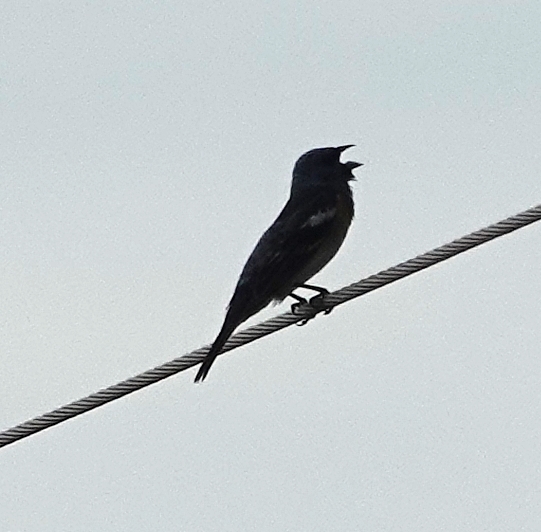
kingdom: Animalia
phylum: Chordata
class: Aves
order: Passeriformes
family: Cardinalidae
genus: Passerina
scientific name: Passerina amoena
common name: Lazuli bunting
